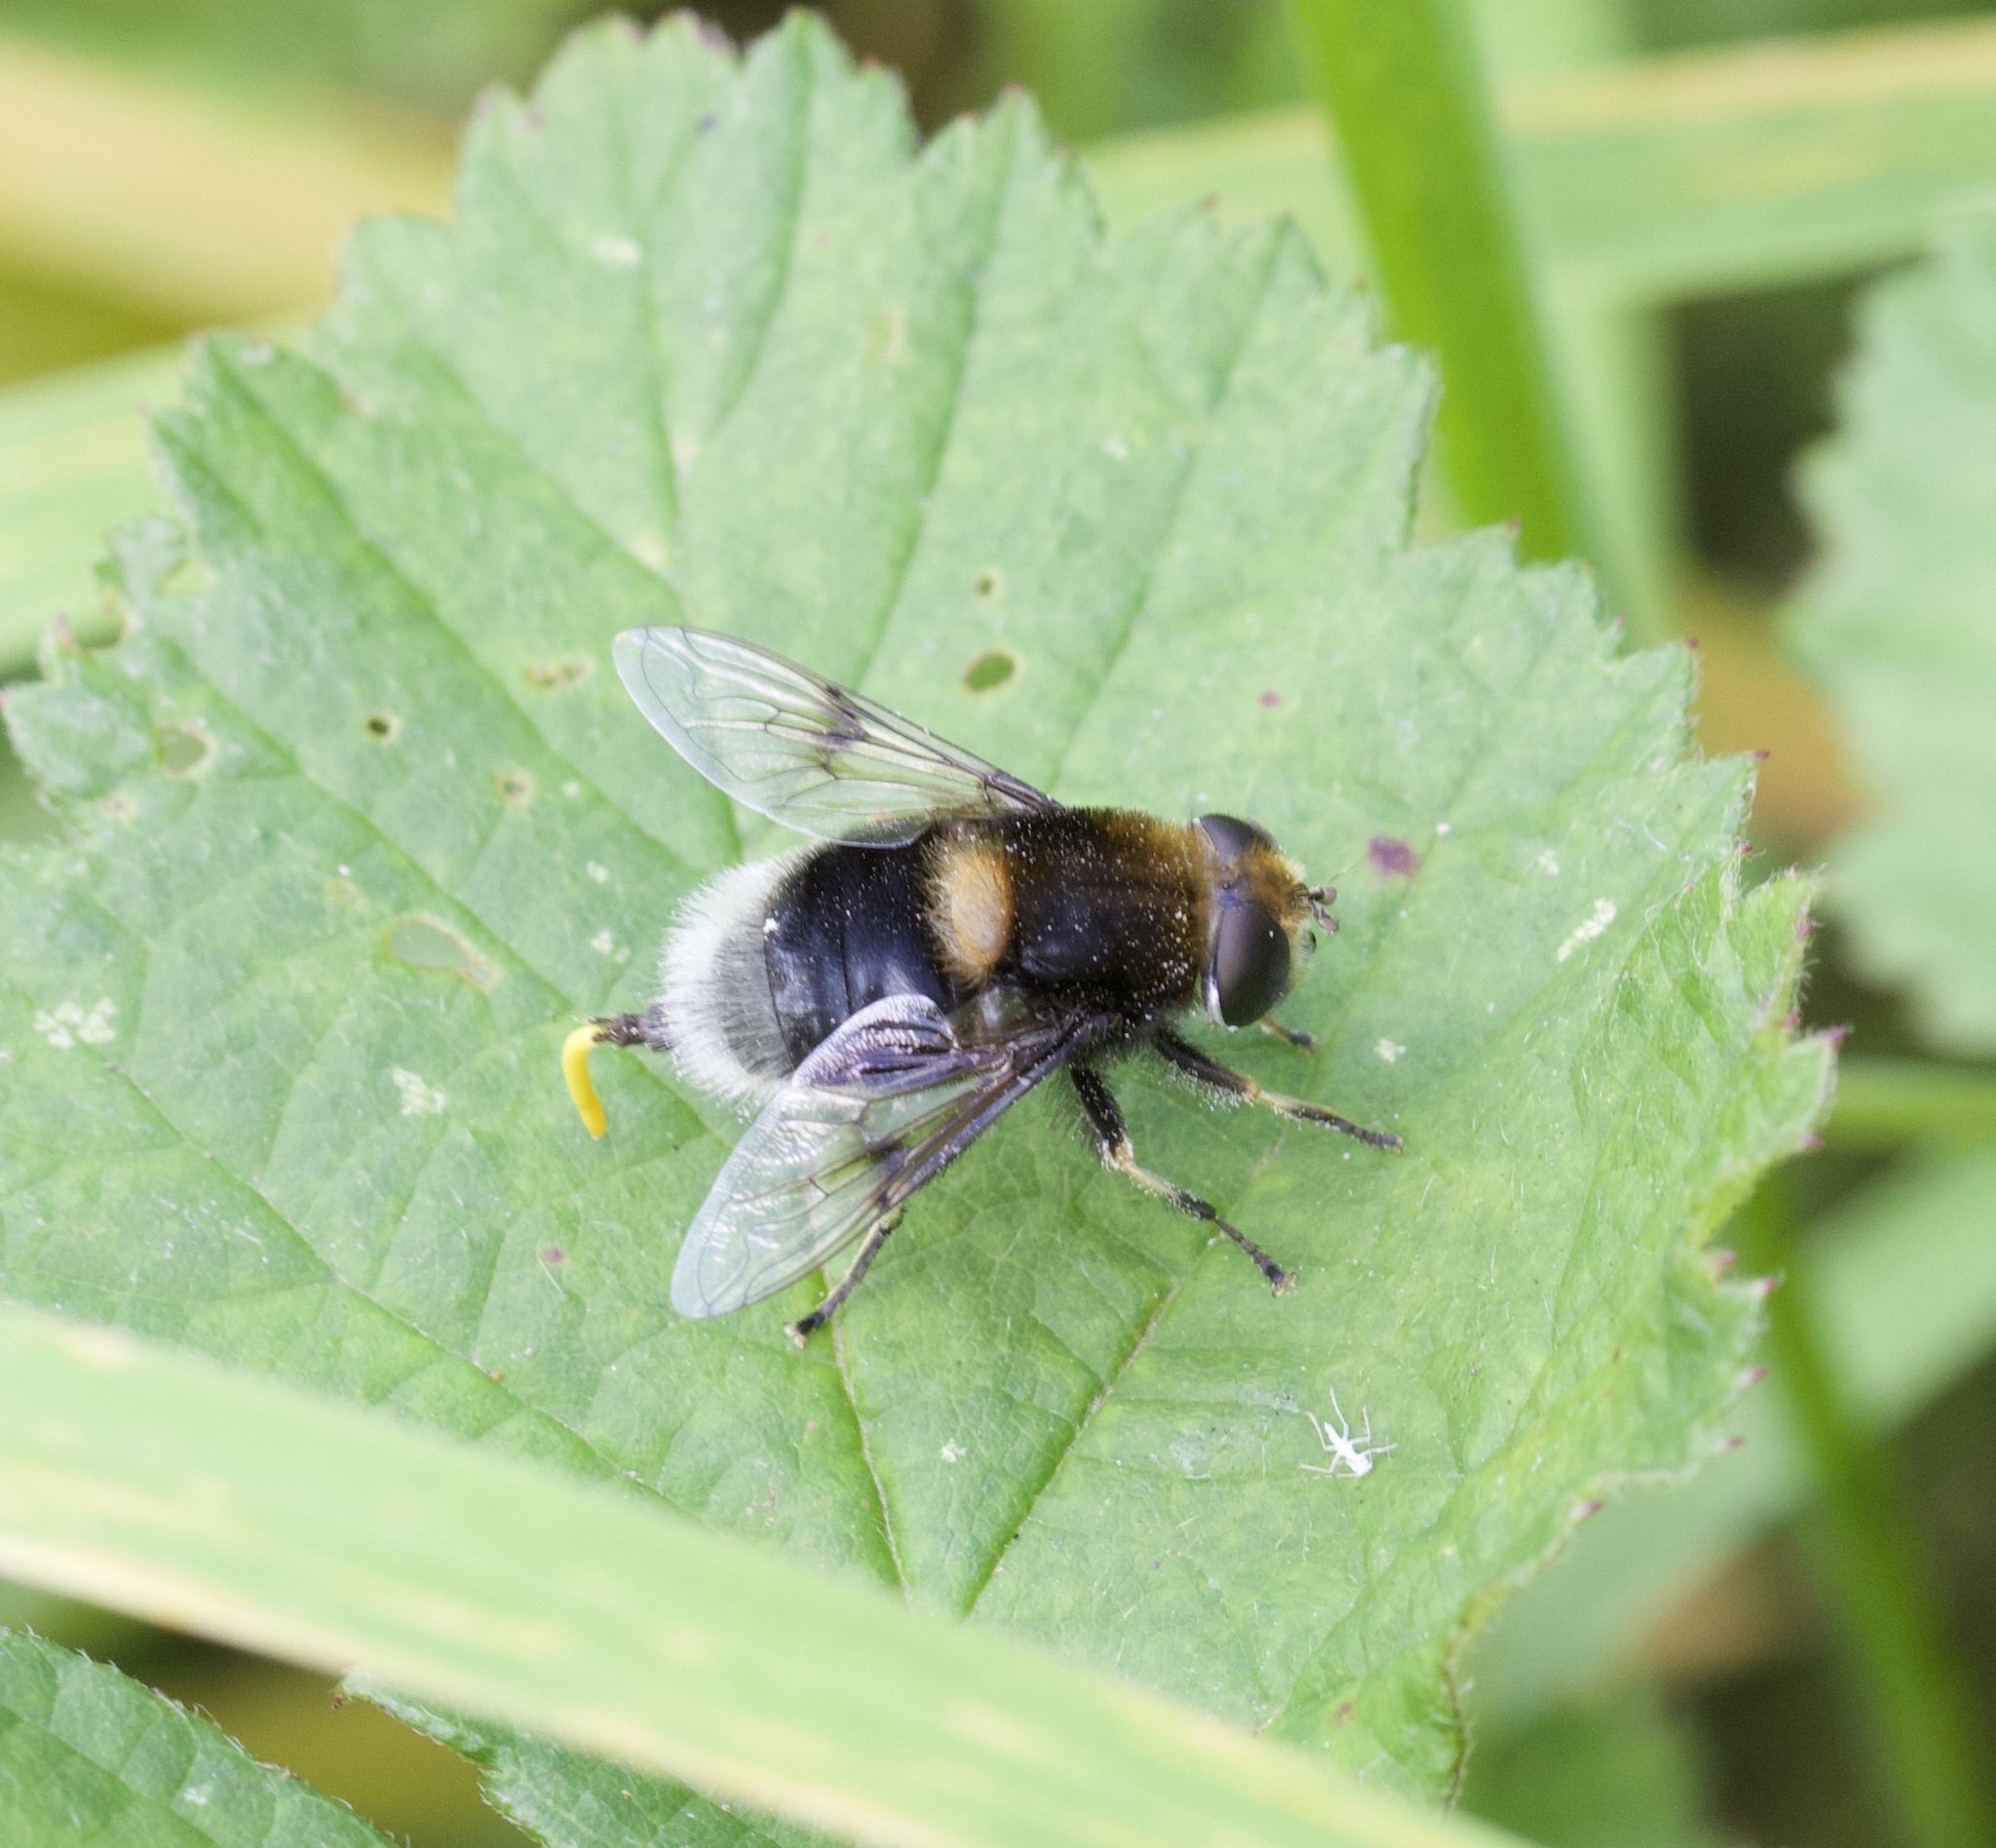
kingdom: Animalia
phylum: Arthropoda
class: Insecta
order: Diptera
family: Syrphidae
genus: Eristalis
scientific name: Eristalis intricaria
